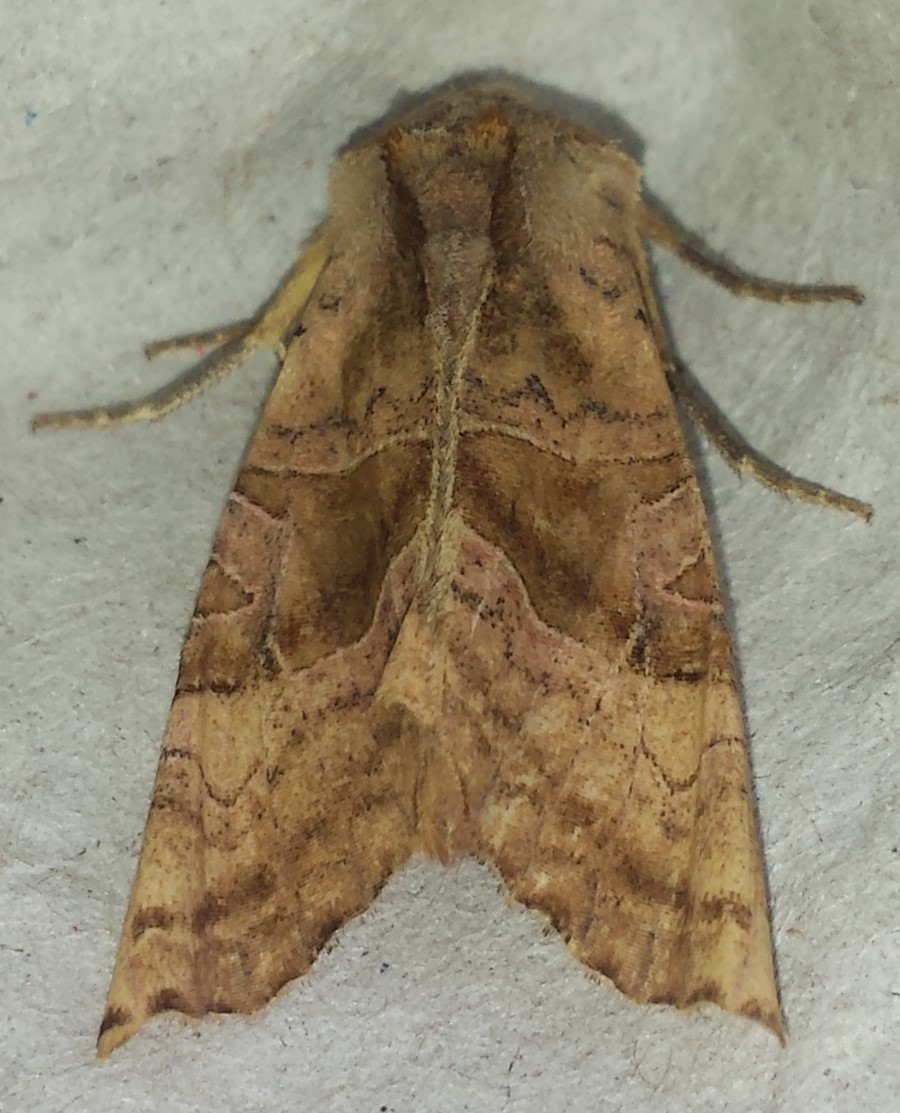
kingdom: Animalia
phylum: Arthropoda
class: Insecta
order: Lepidoptera
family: Noctuidae
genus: Phlogophora
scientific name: Phlogophora periculosa
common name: Brown angle shades
